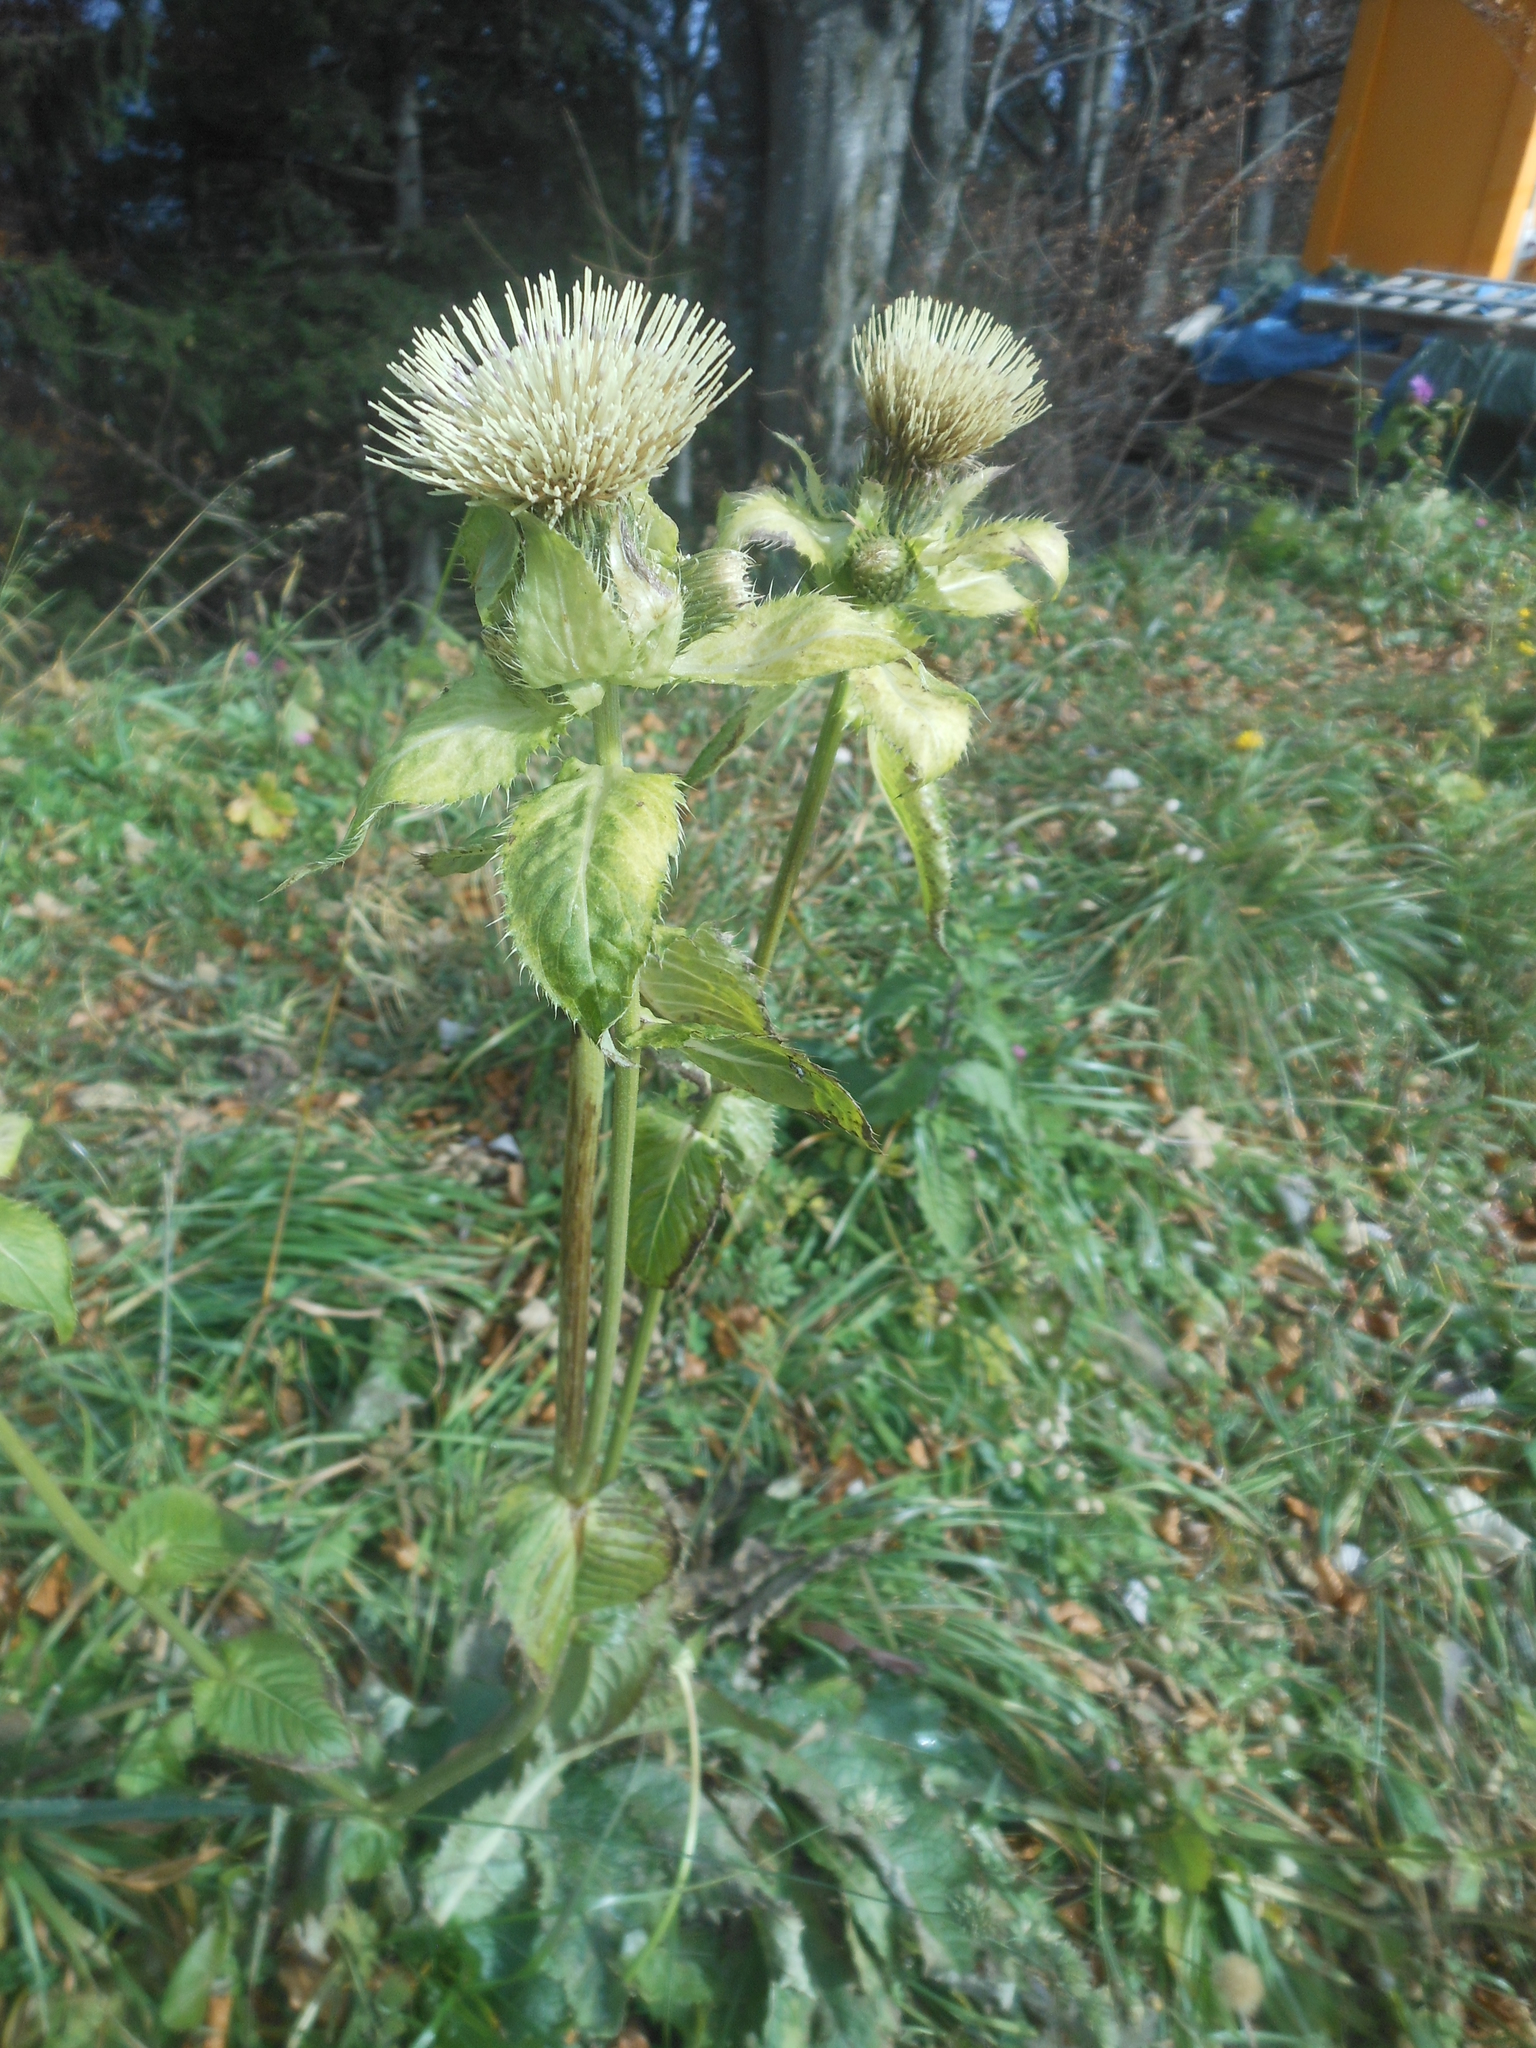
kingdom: Plantae
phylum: Tracheophyta
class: Magnoliopsida
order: Asterales
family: Asteraceae
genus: Cirsium
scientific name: Cirsium oleraceum
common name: Cabbage thistle
